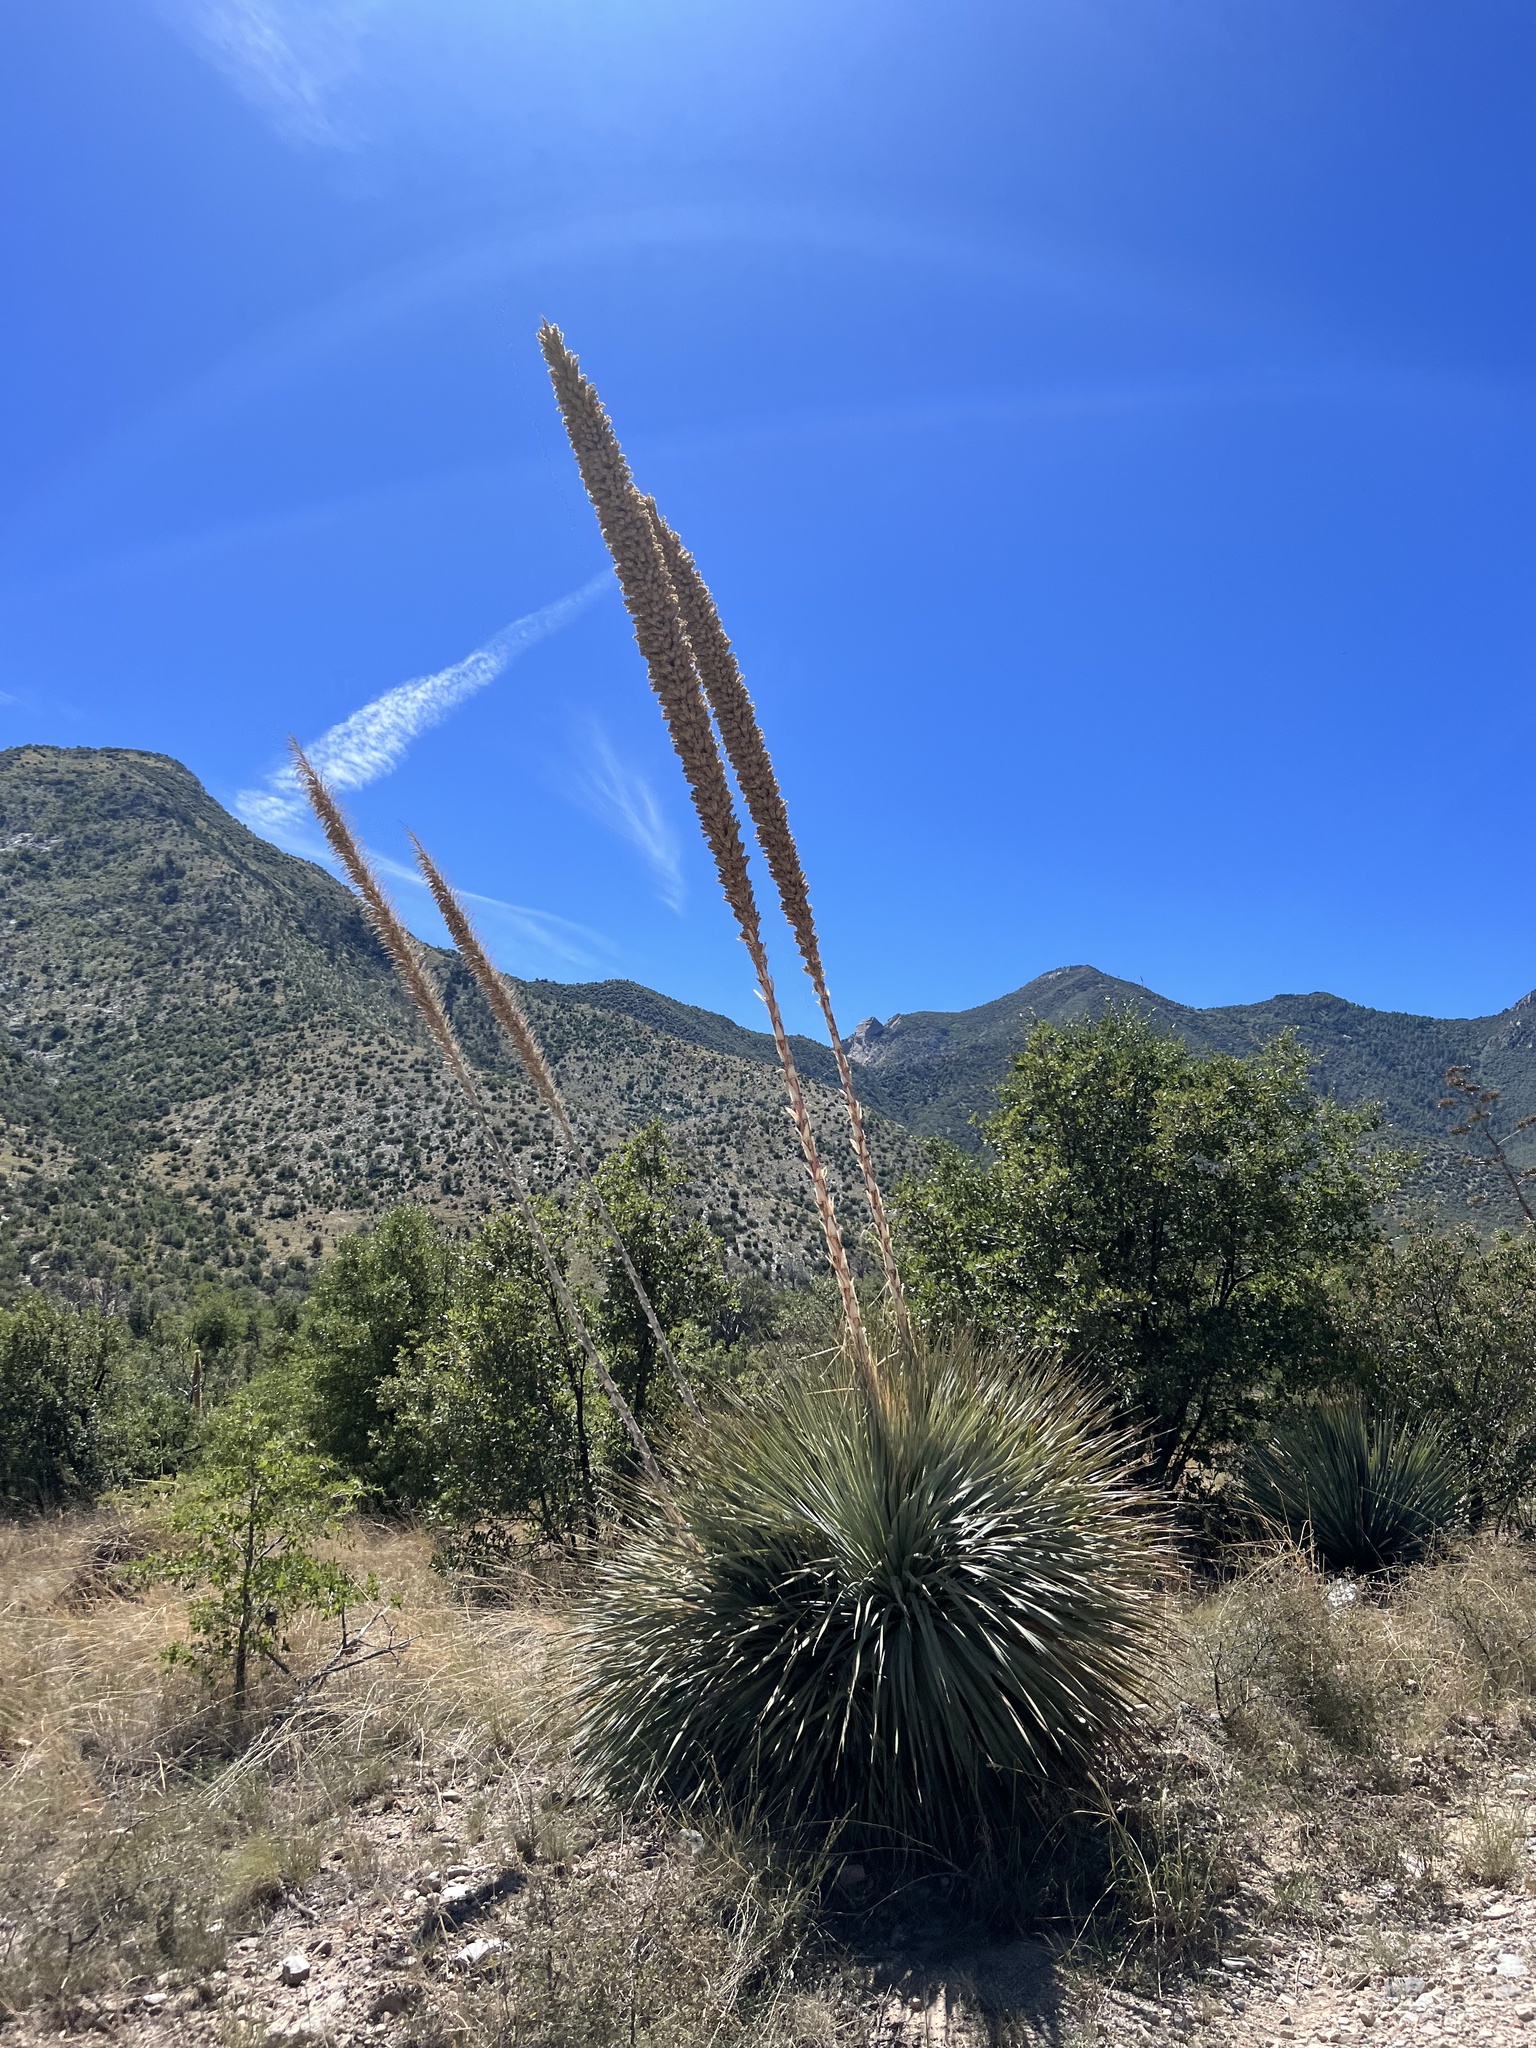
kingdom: Plantae
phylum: Tracheophyta
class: Liliopsida
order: Asparagales
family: Asparagaceae
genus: Dasylirion
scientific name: Dasylirion wheeleri
